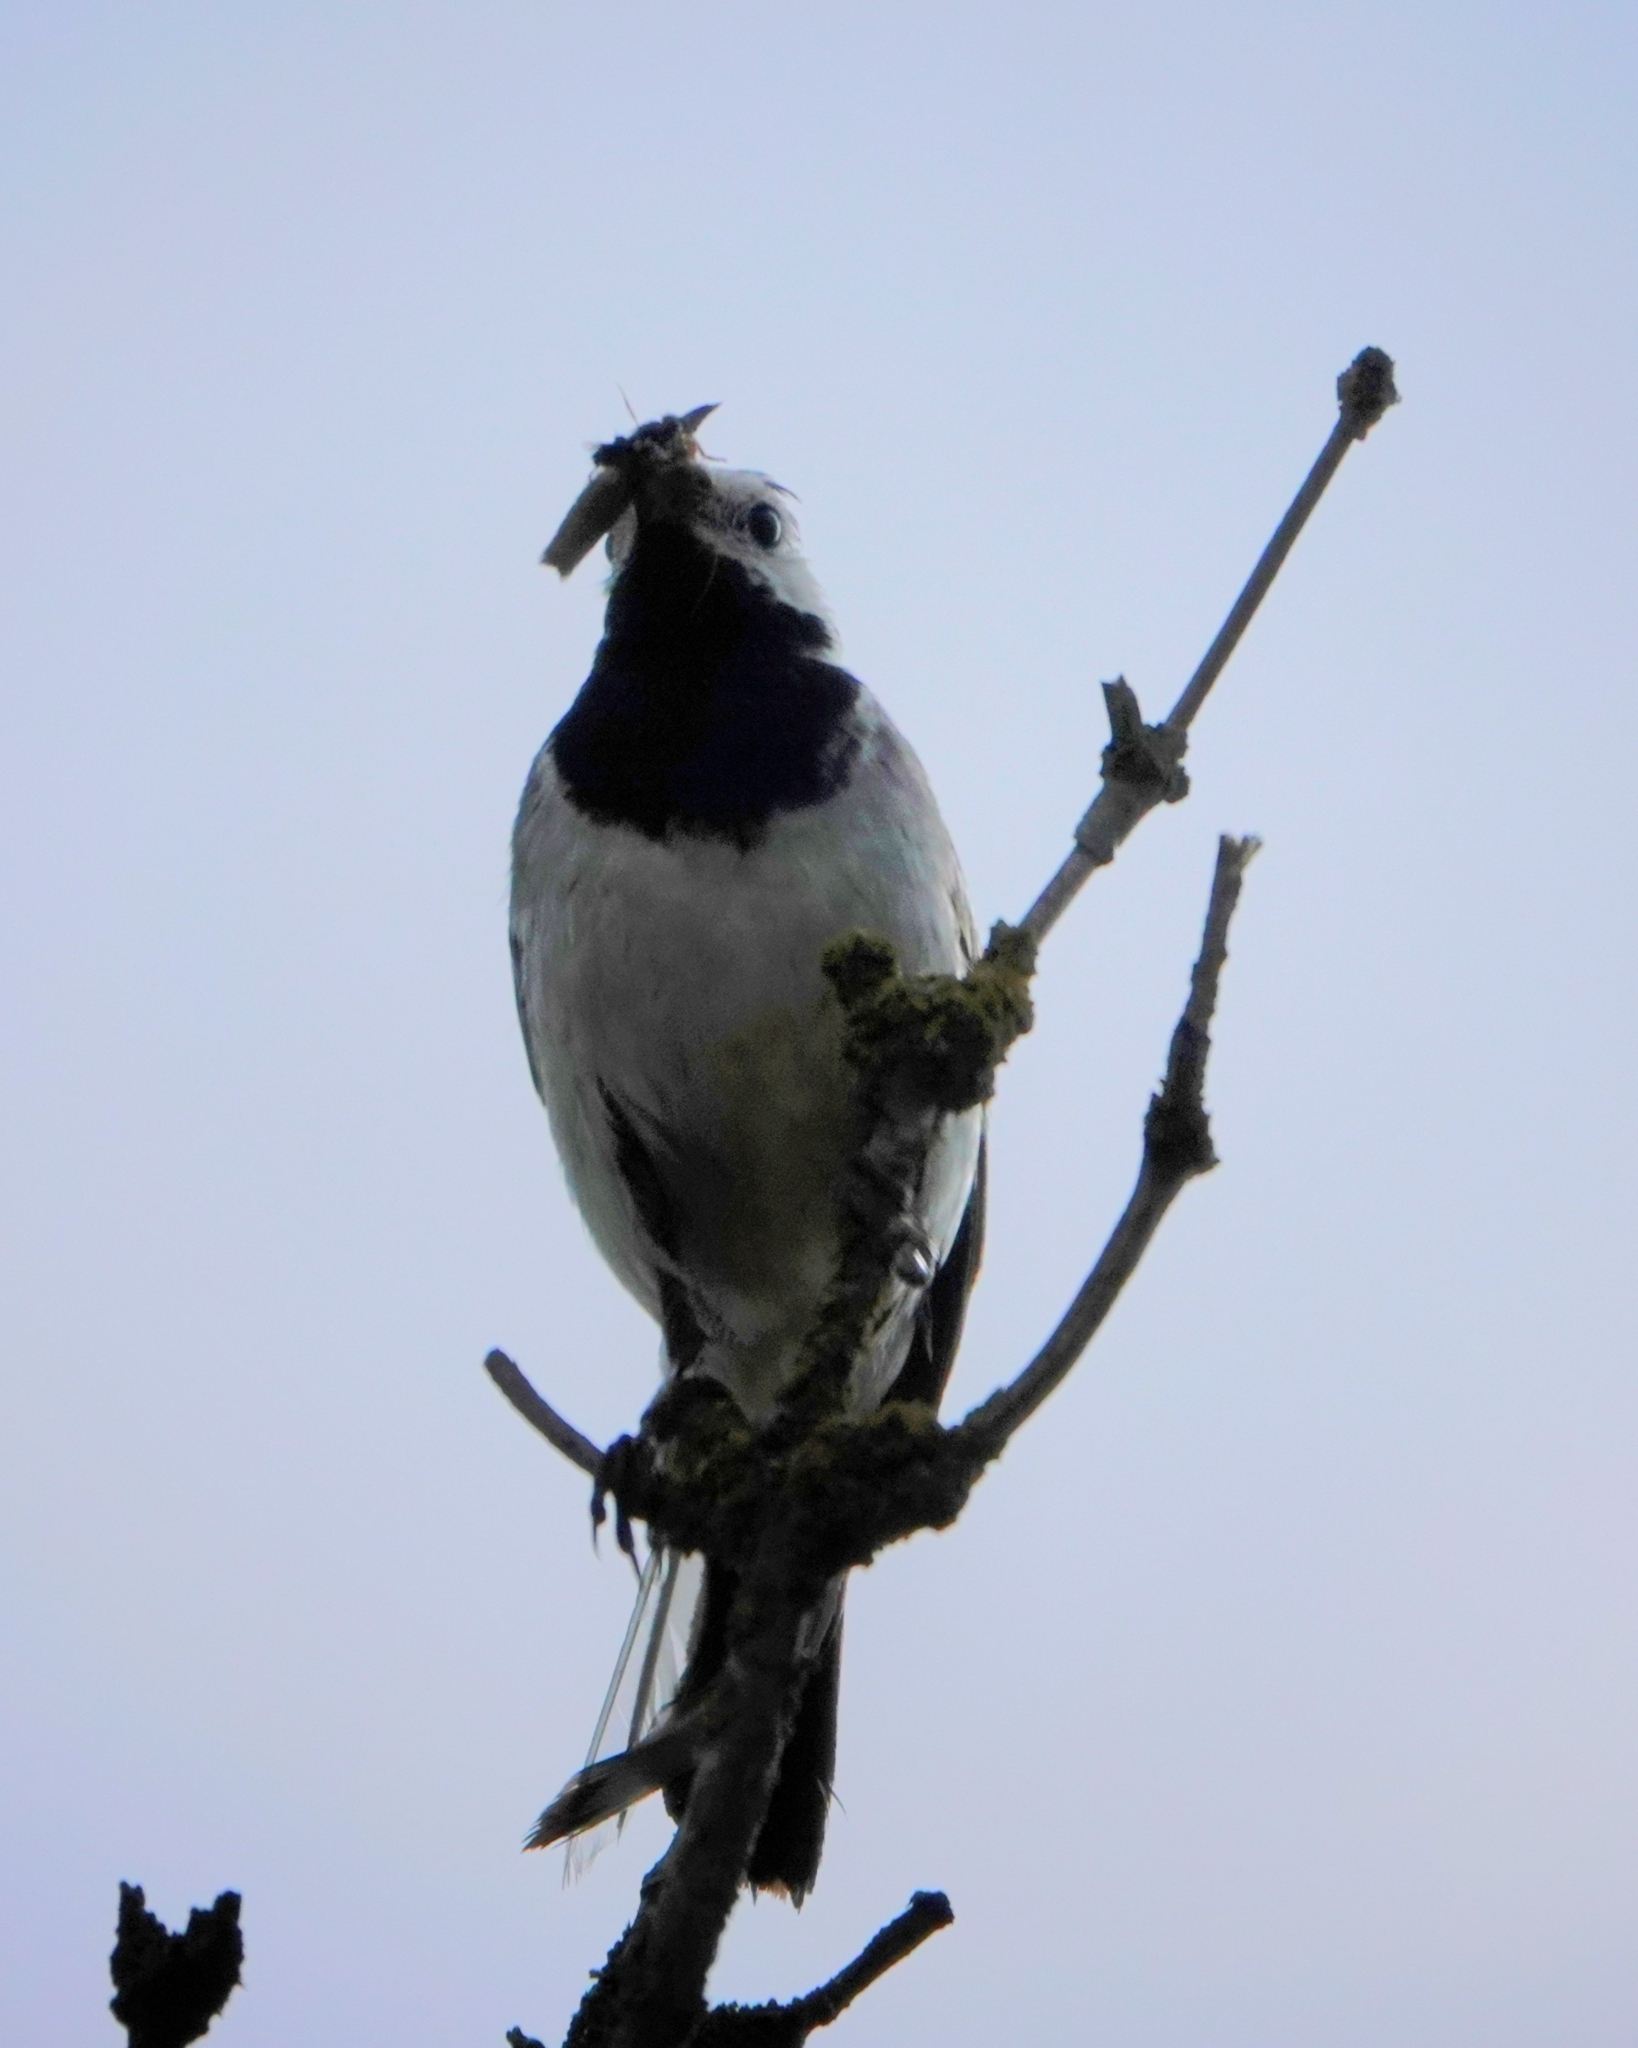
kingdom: Animalia
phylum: Chordata
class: Aves
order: Passeriformes
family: Motacillidae
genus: Motacilla
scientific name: Motacilla alba
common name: White wagtail
